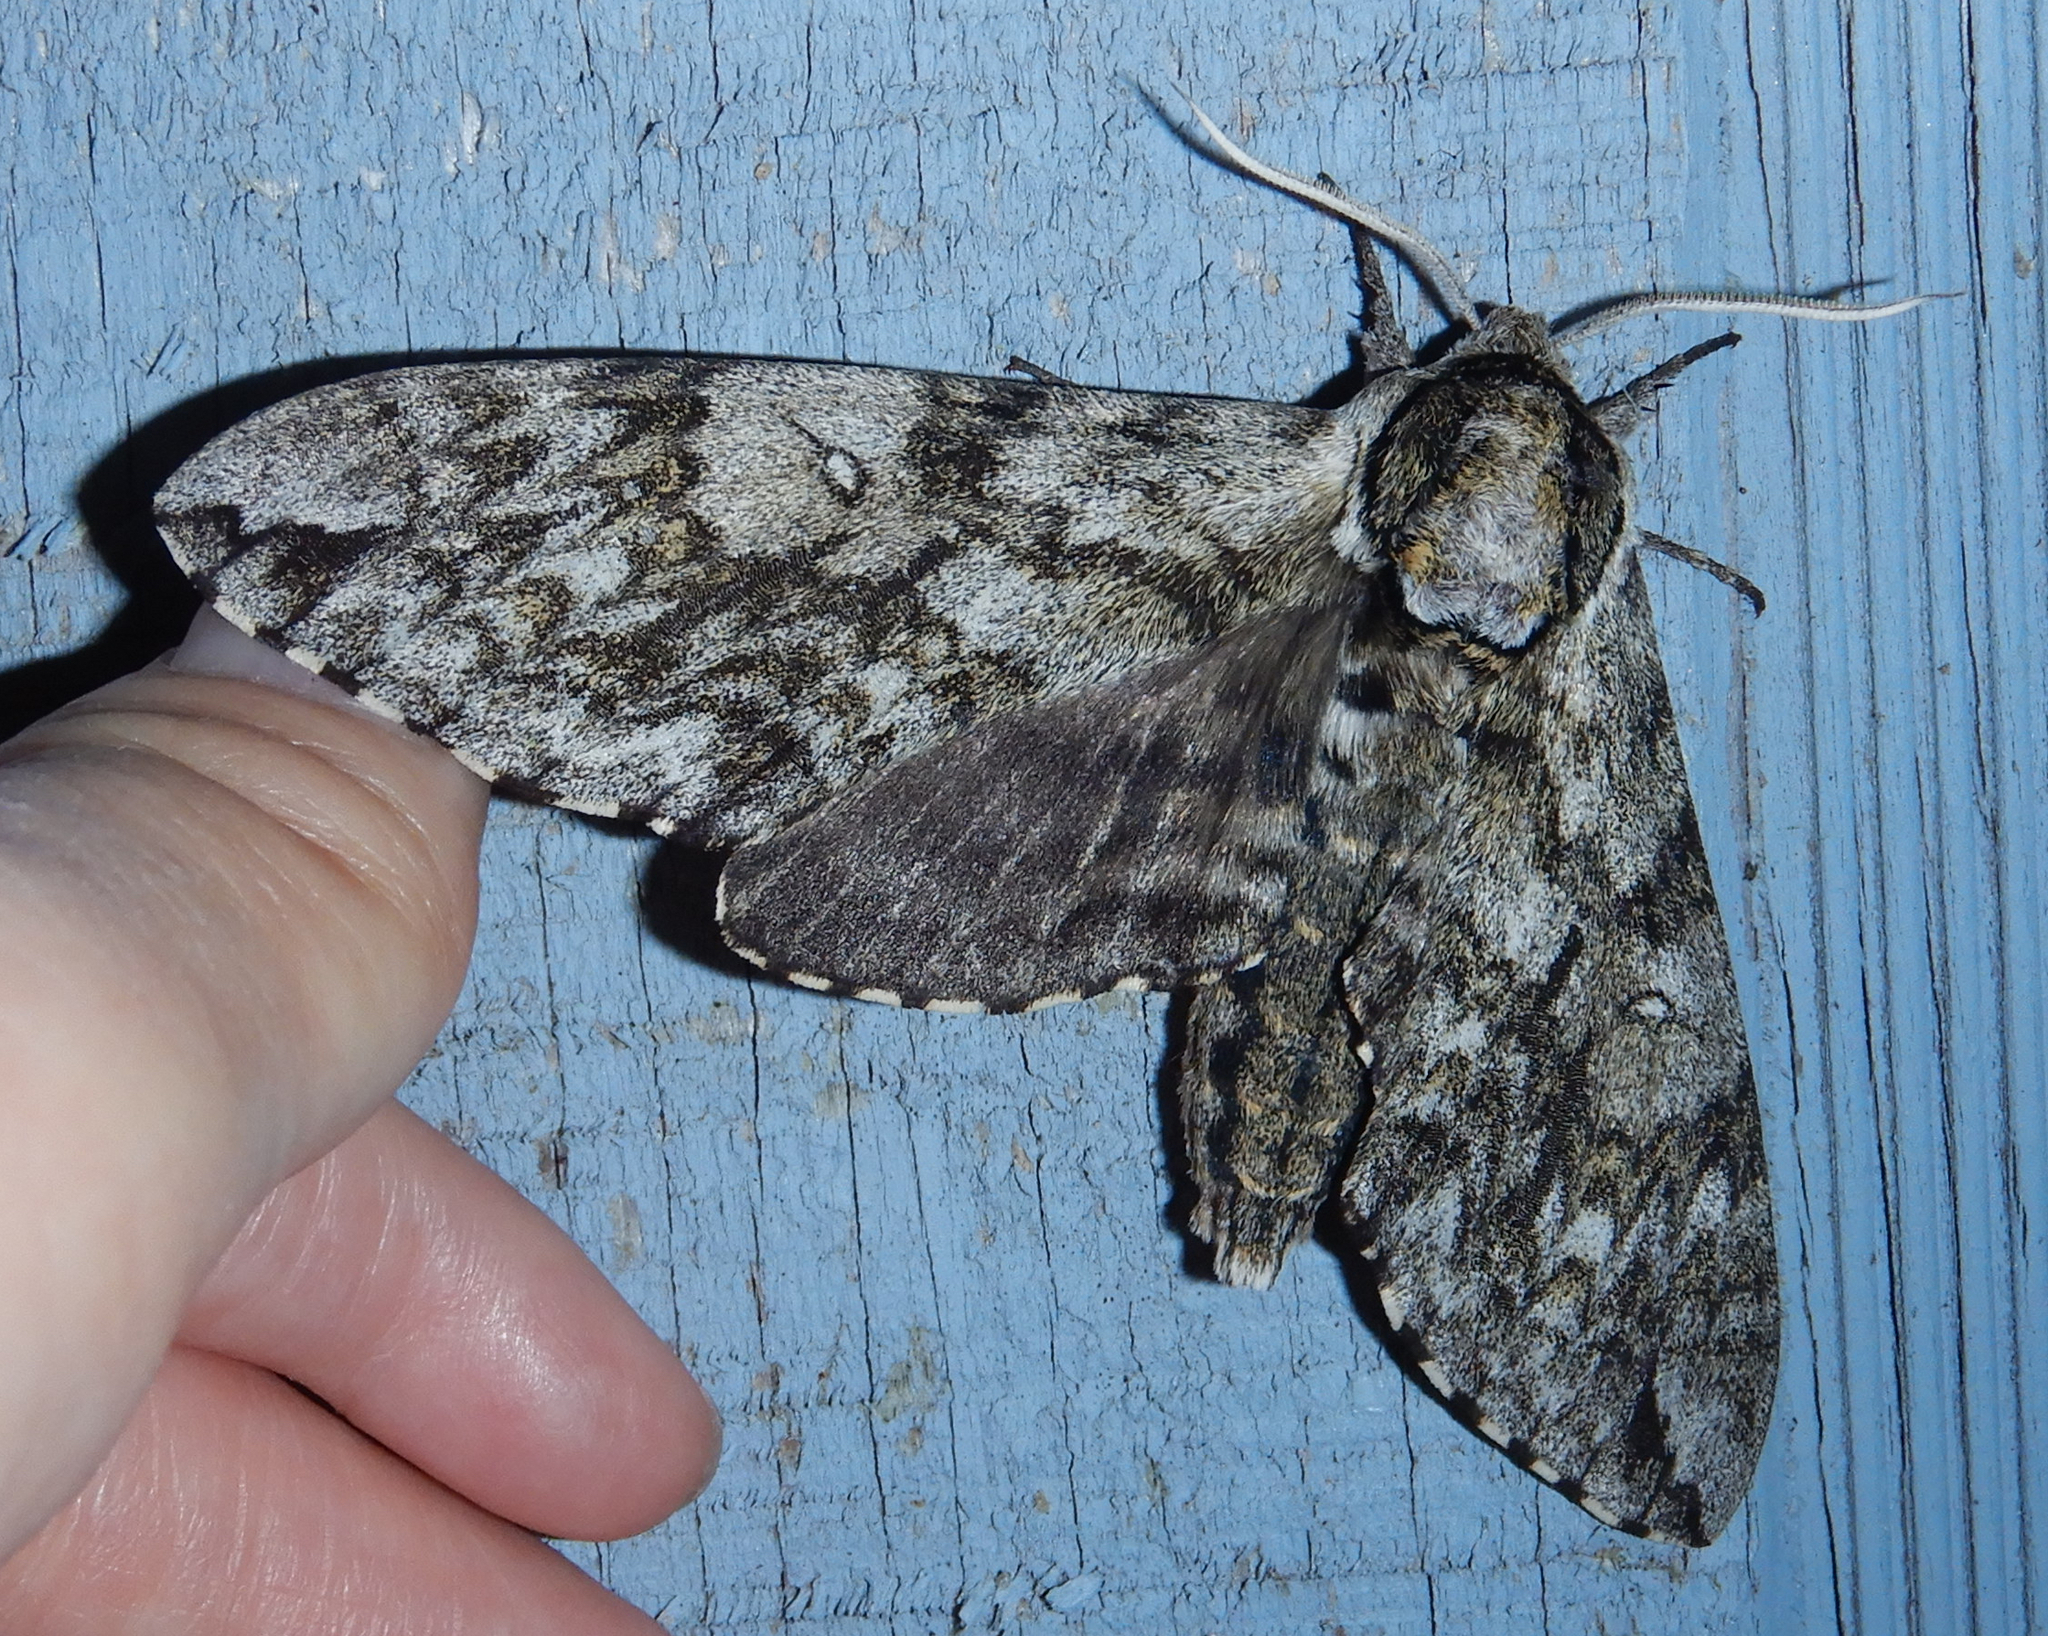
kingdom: Animalia
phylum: Arthropoda
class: Insecta
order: Lepidoptera
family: Sphingidae
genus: Ceratomia
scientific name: Ceratomia undulosa
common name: Waved sphinx
